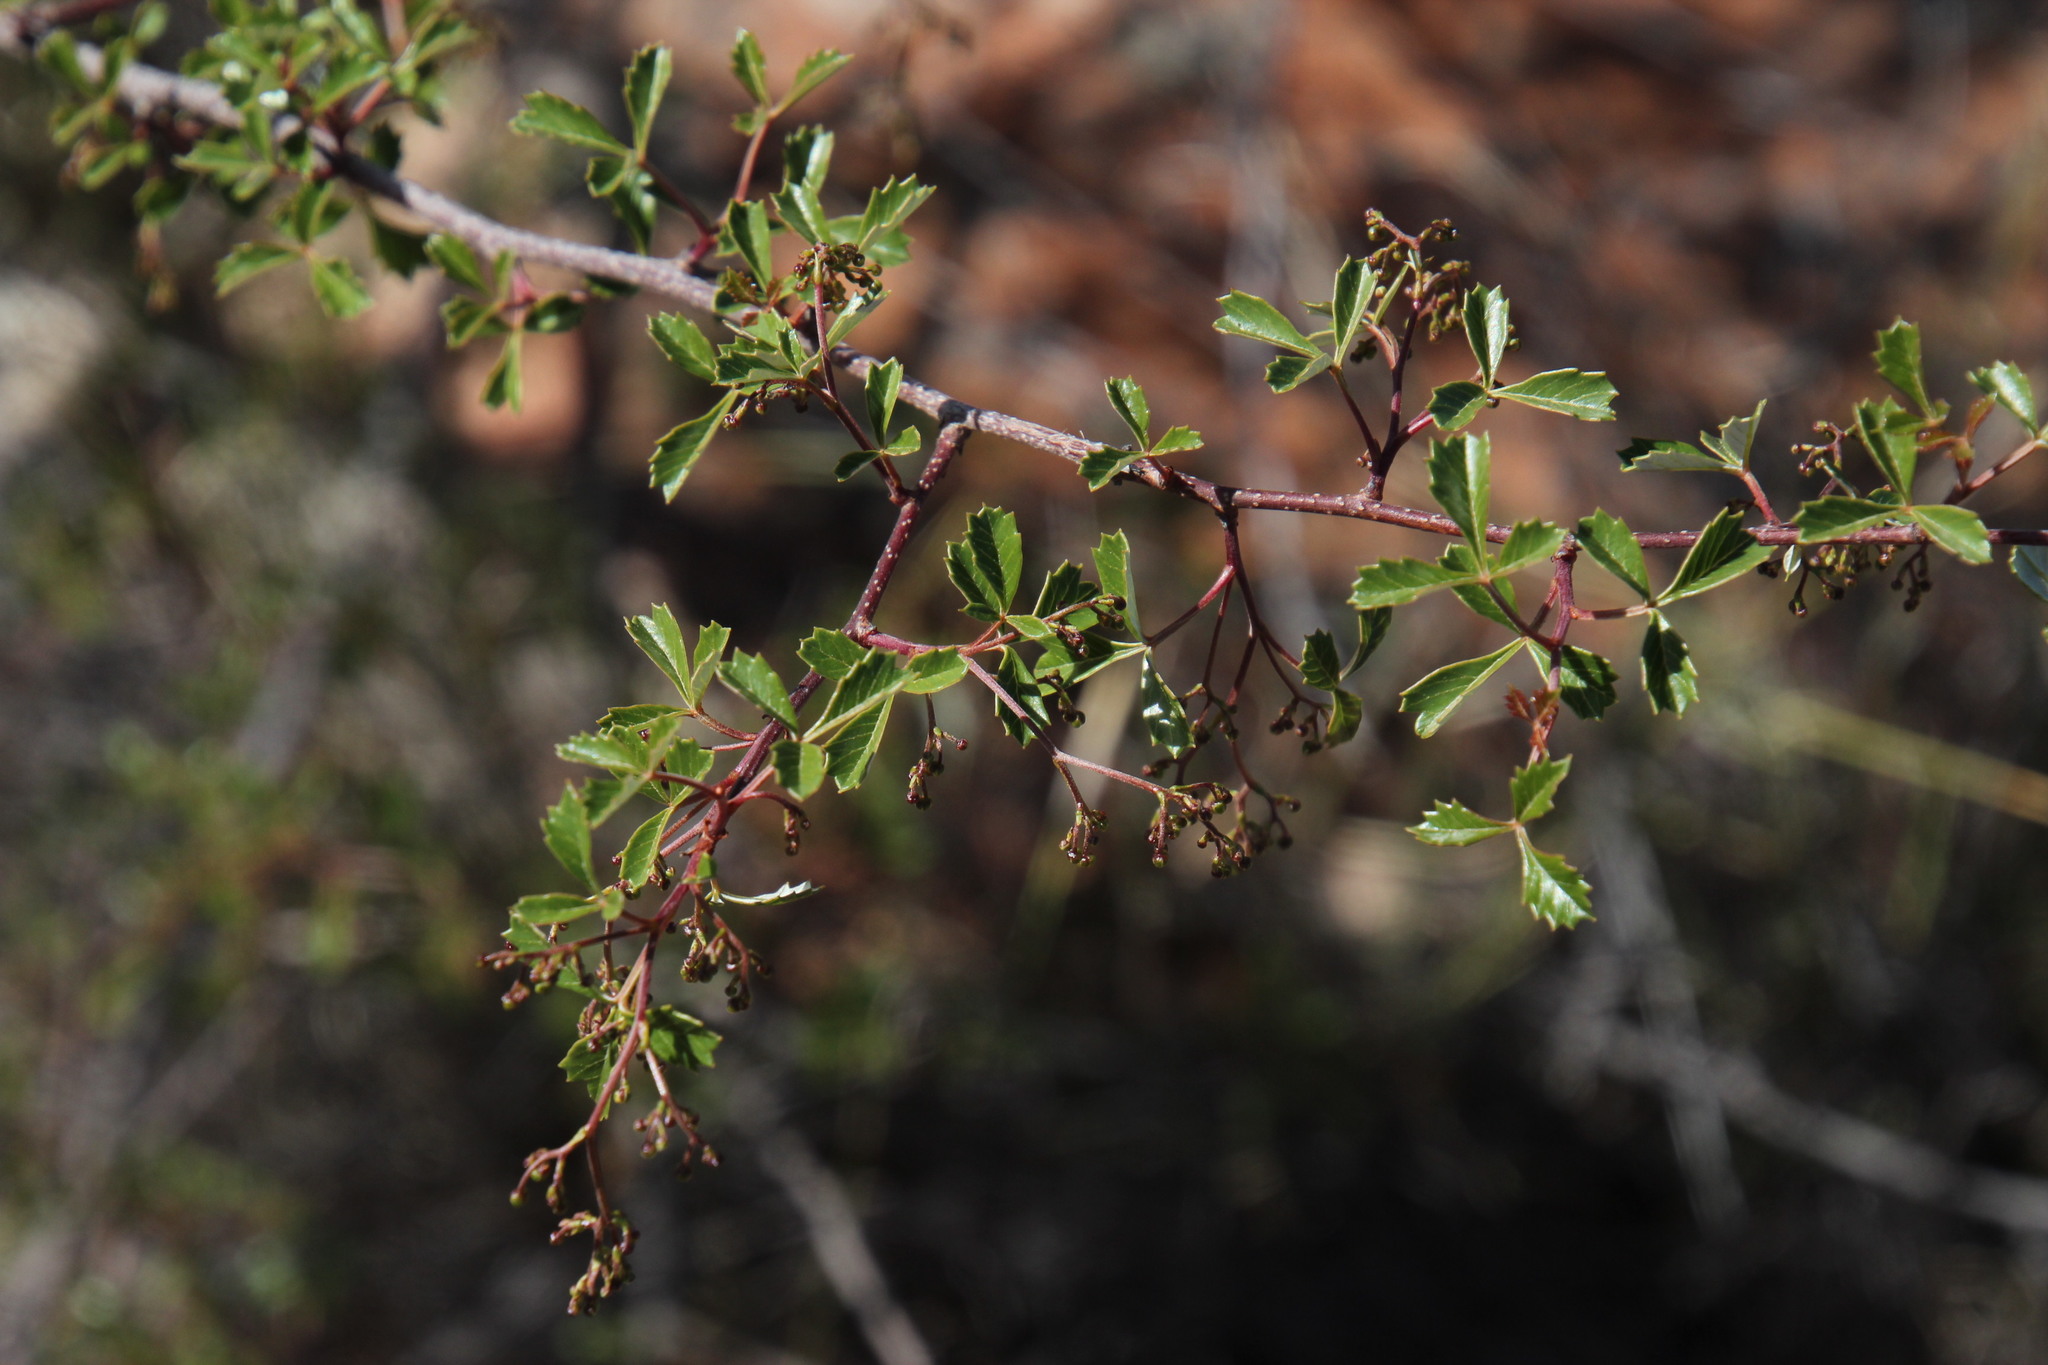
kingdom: Plantae
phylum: Tracheophyta
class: Magnoliopsida
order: Sapindales
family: Anacardiaceae
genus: Searsia
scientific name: Searsia dissecta
